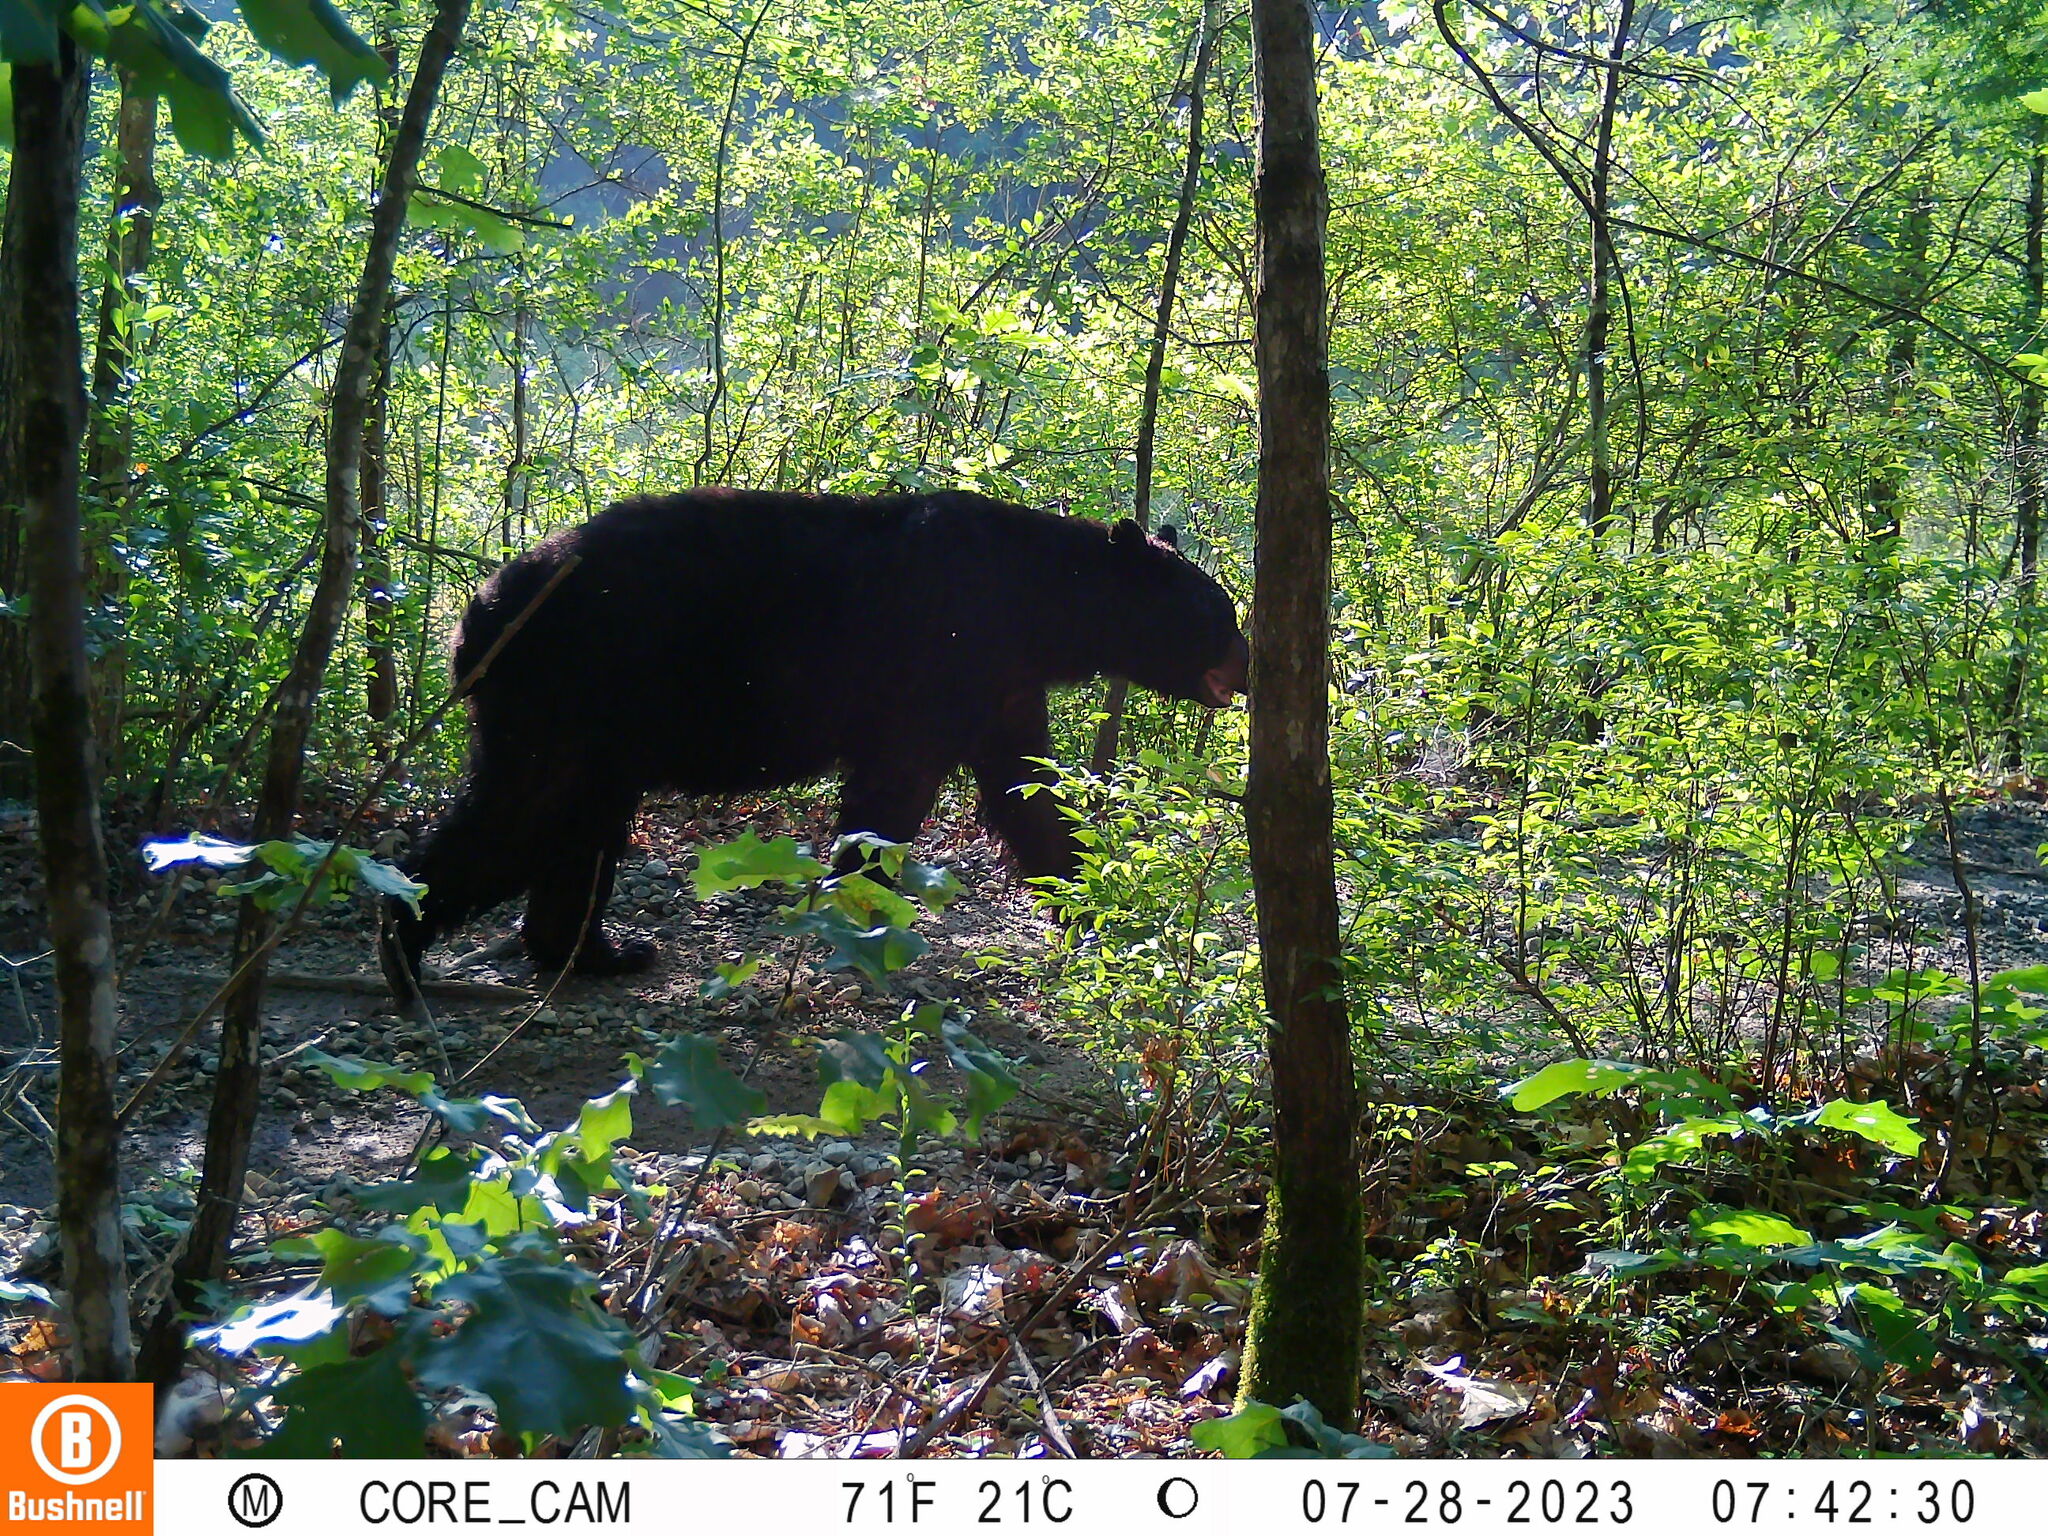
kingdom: Animalia
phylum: Chordata
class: Mammalia
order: Carnivora
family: Ursidae
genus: Ursus
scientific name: Ursus americanus
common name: American black bear
